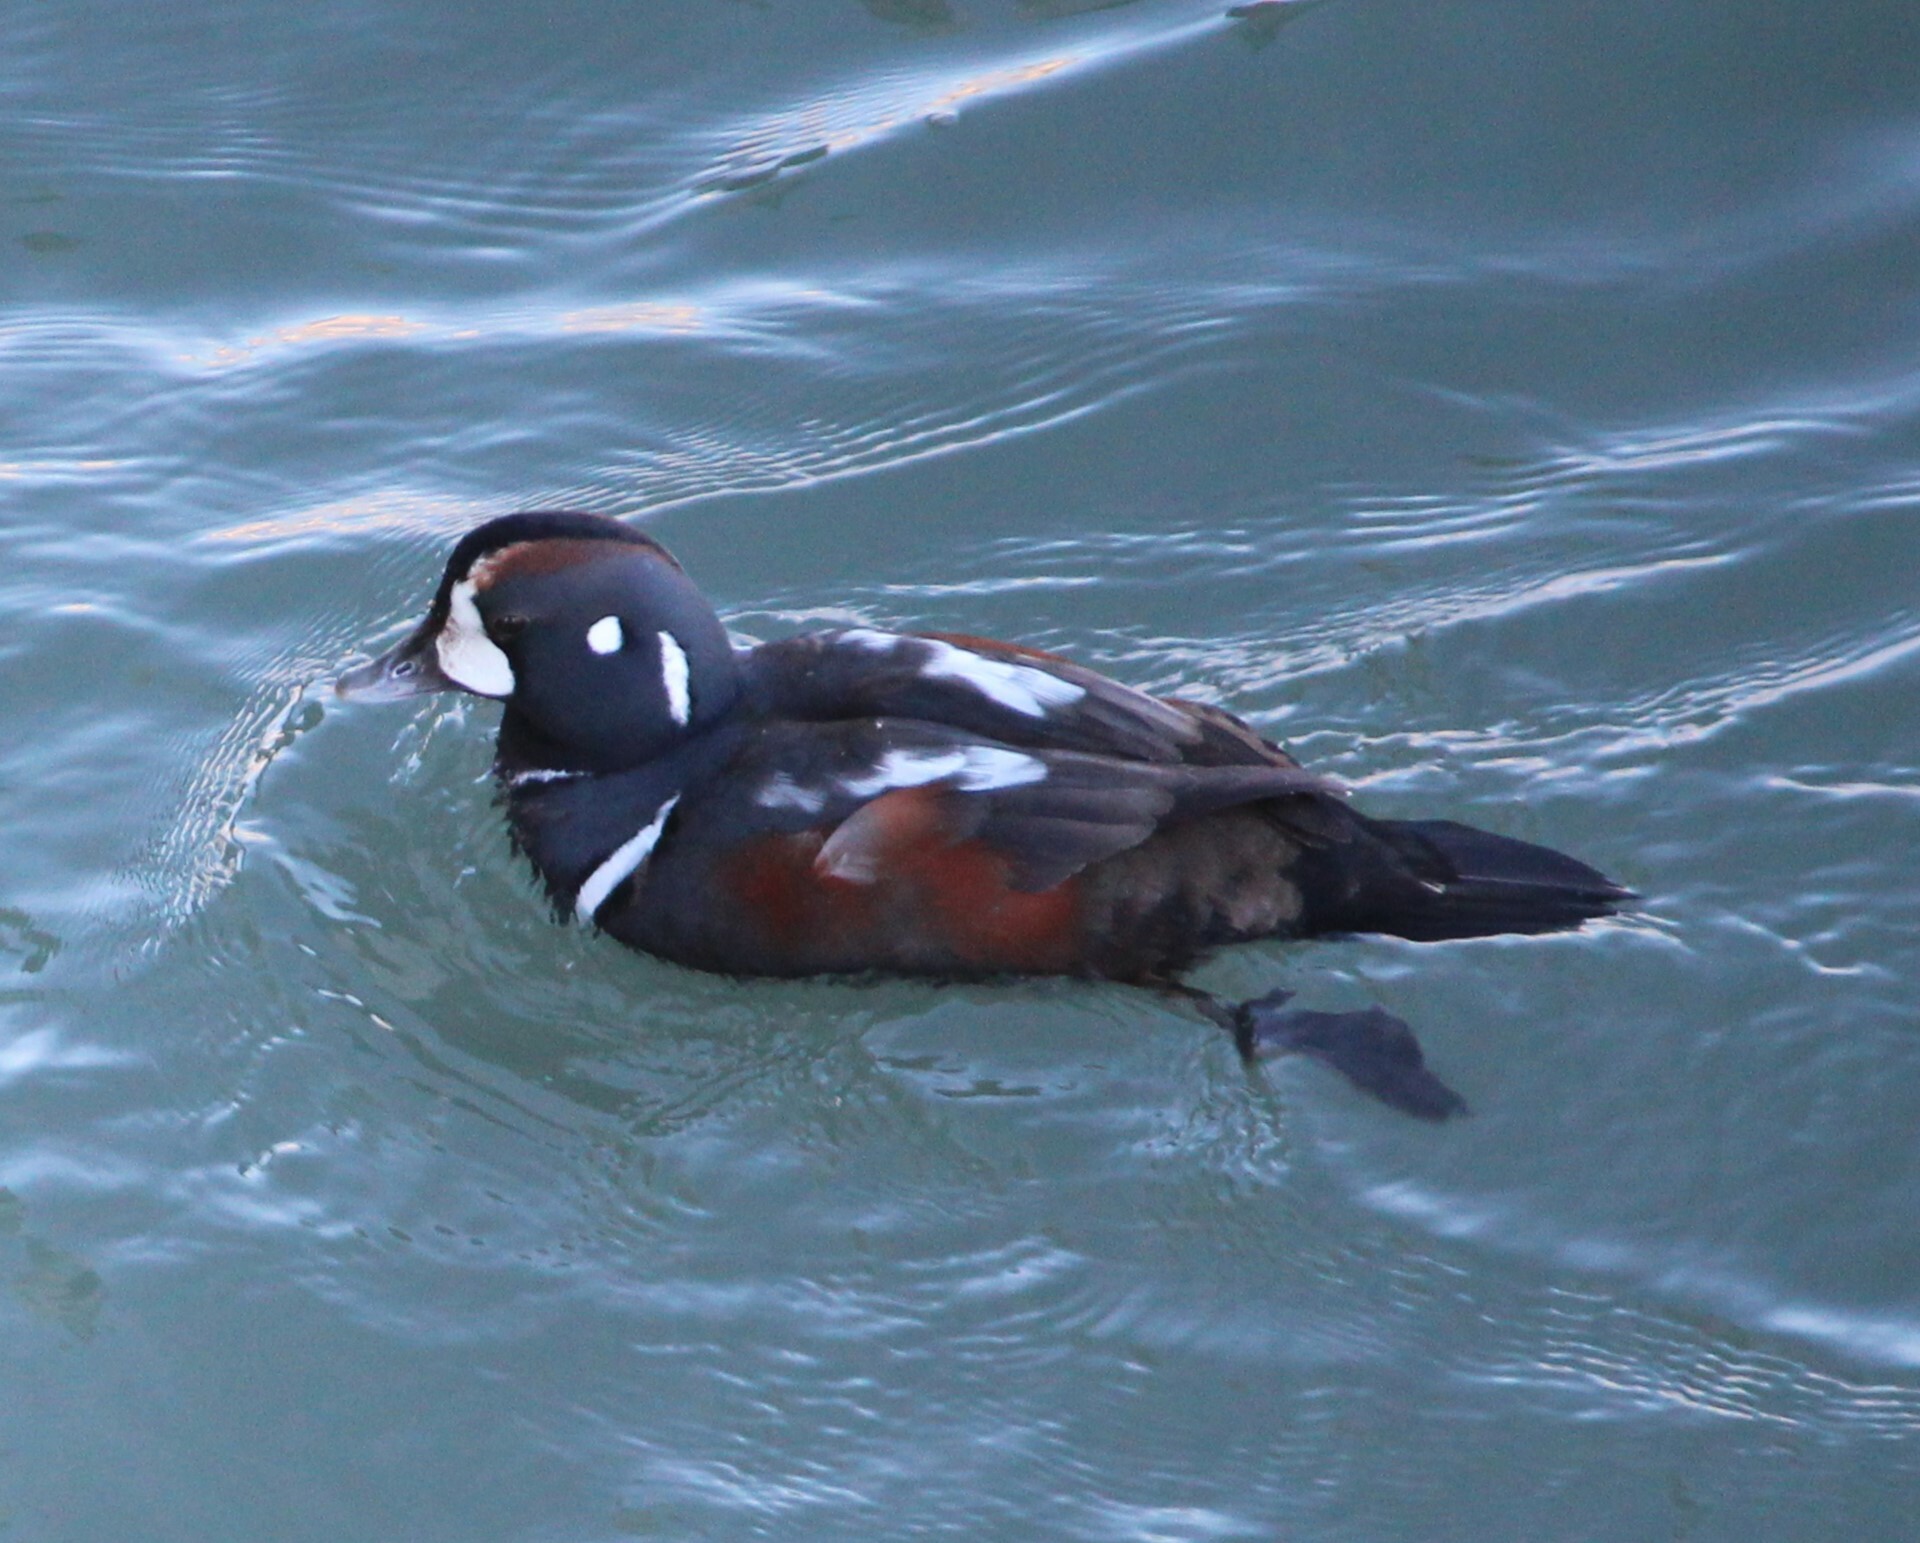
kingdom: Animalia
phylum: Chordata
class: Aves
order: Anseriformes
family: Anatidae
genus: Histrionicus
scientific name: Histrionicus histrionicus
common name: Harlequin duck
